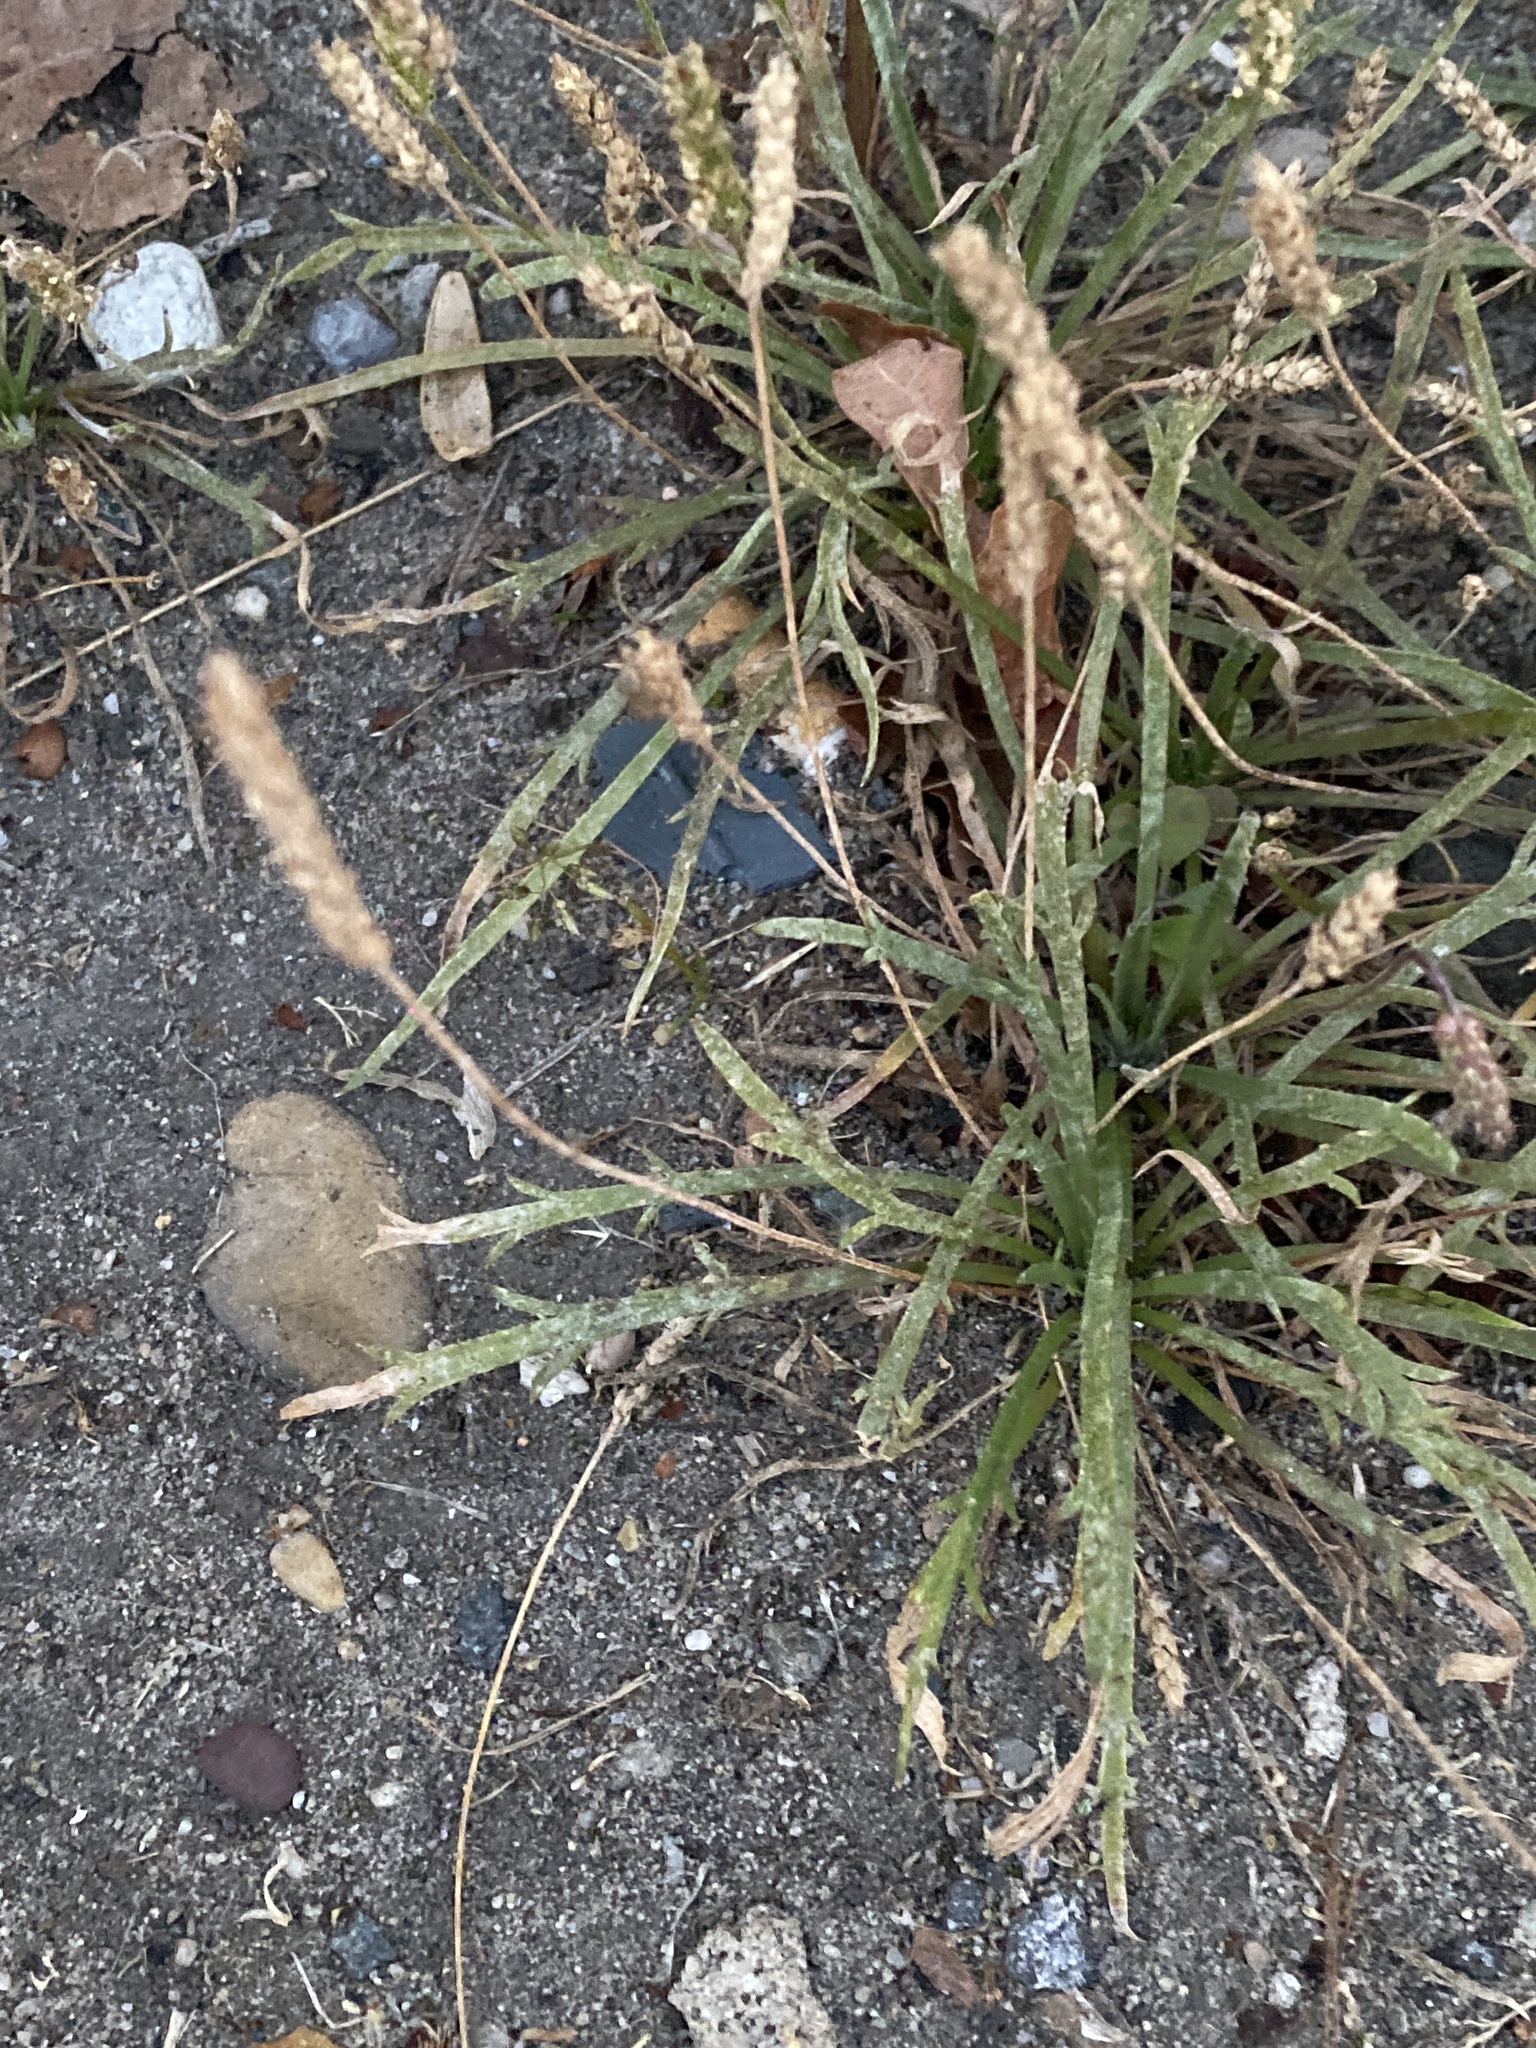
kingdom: Plantae
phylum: Tracheophyta
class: Magnoliopsida
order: Lamiales
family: Plantaginaceae
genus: Plantago
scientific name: Plantago coronopus
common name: Buck's-horn plantain
